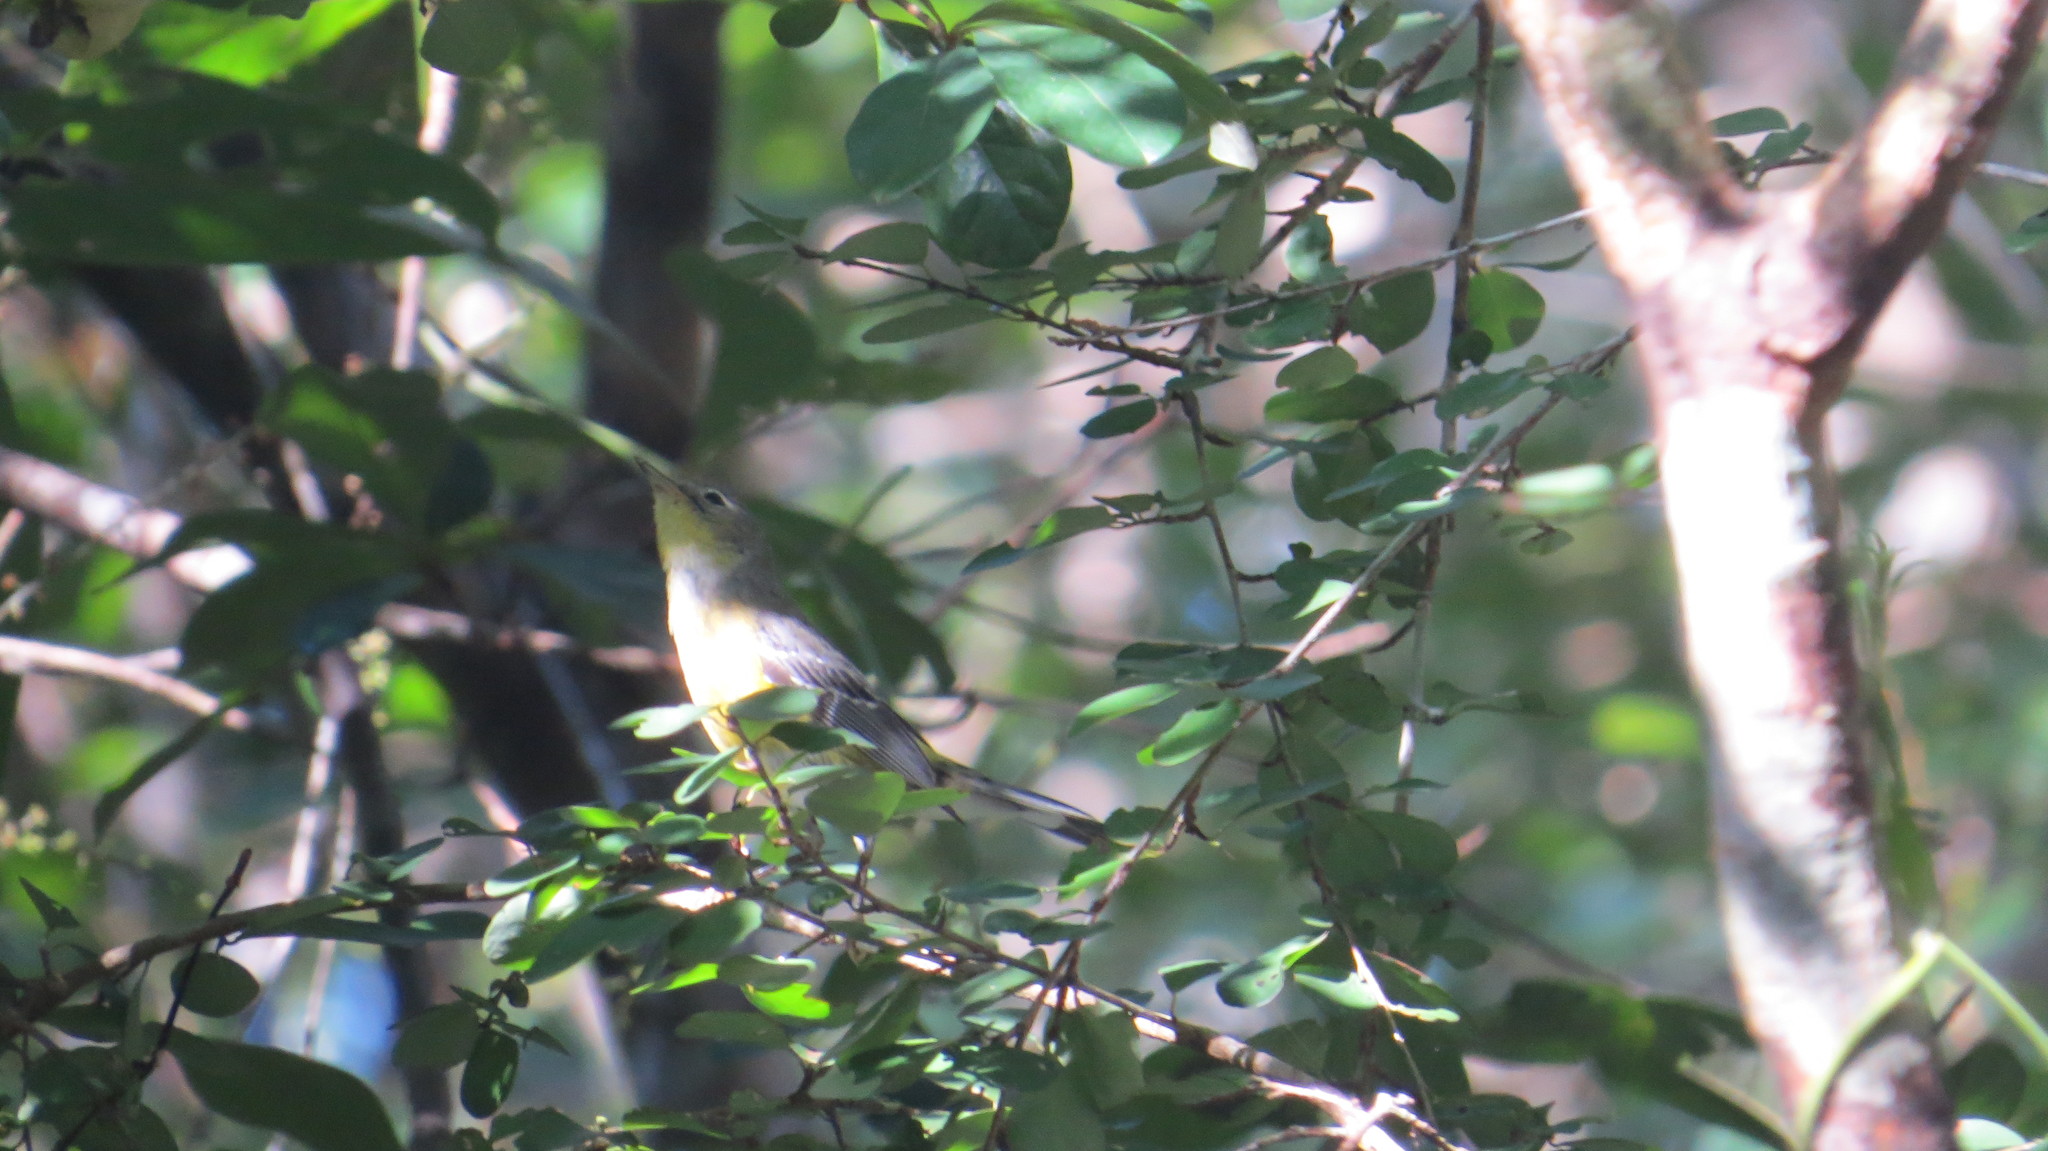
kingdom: Animalia
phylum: Chordata
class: Aves
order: Passeriformes
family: Parulidae
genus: Setophaga
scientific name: Setophaga magnolia
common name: Magnolia warbler
